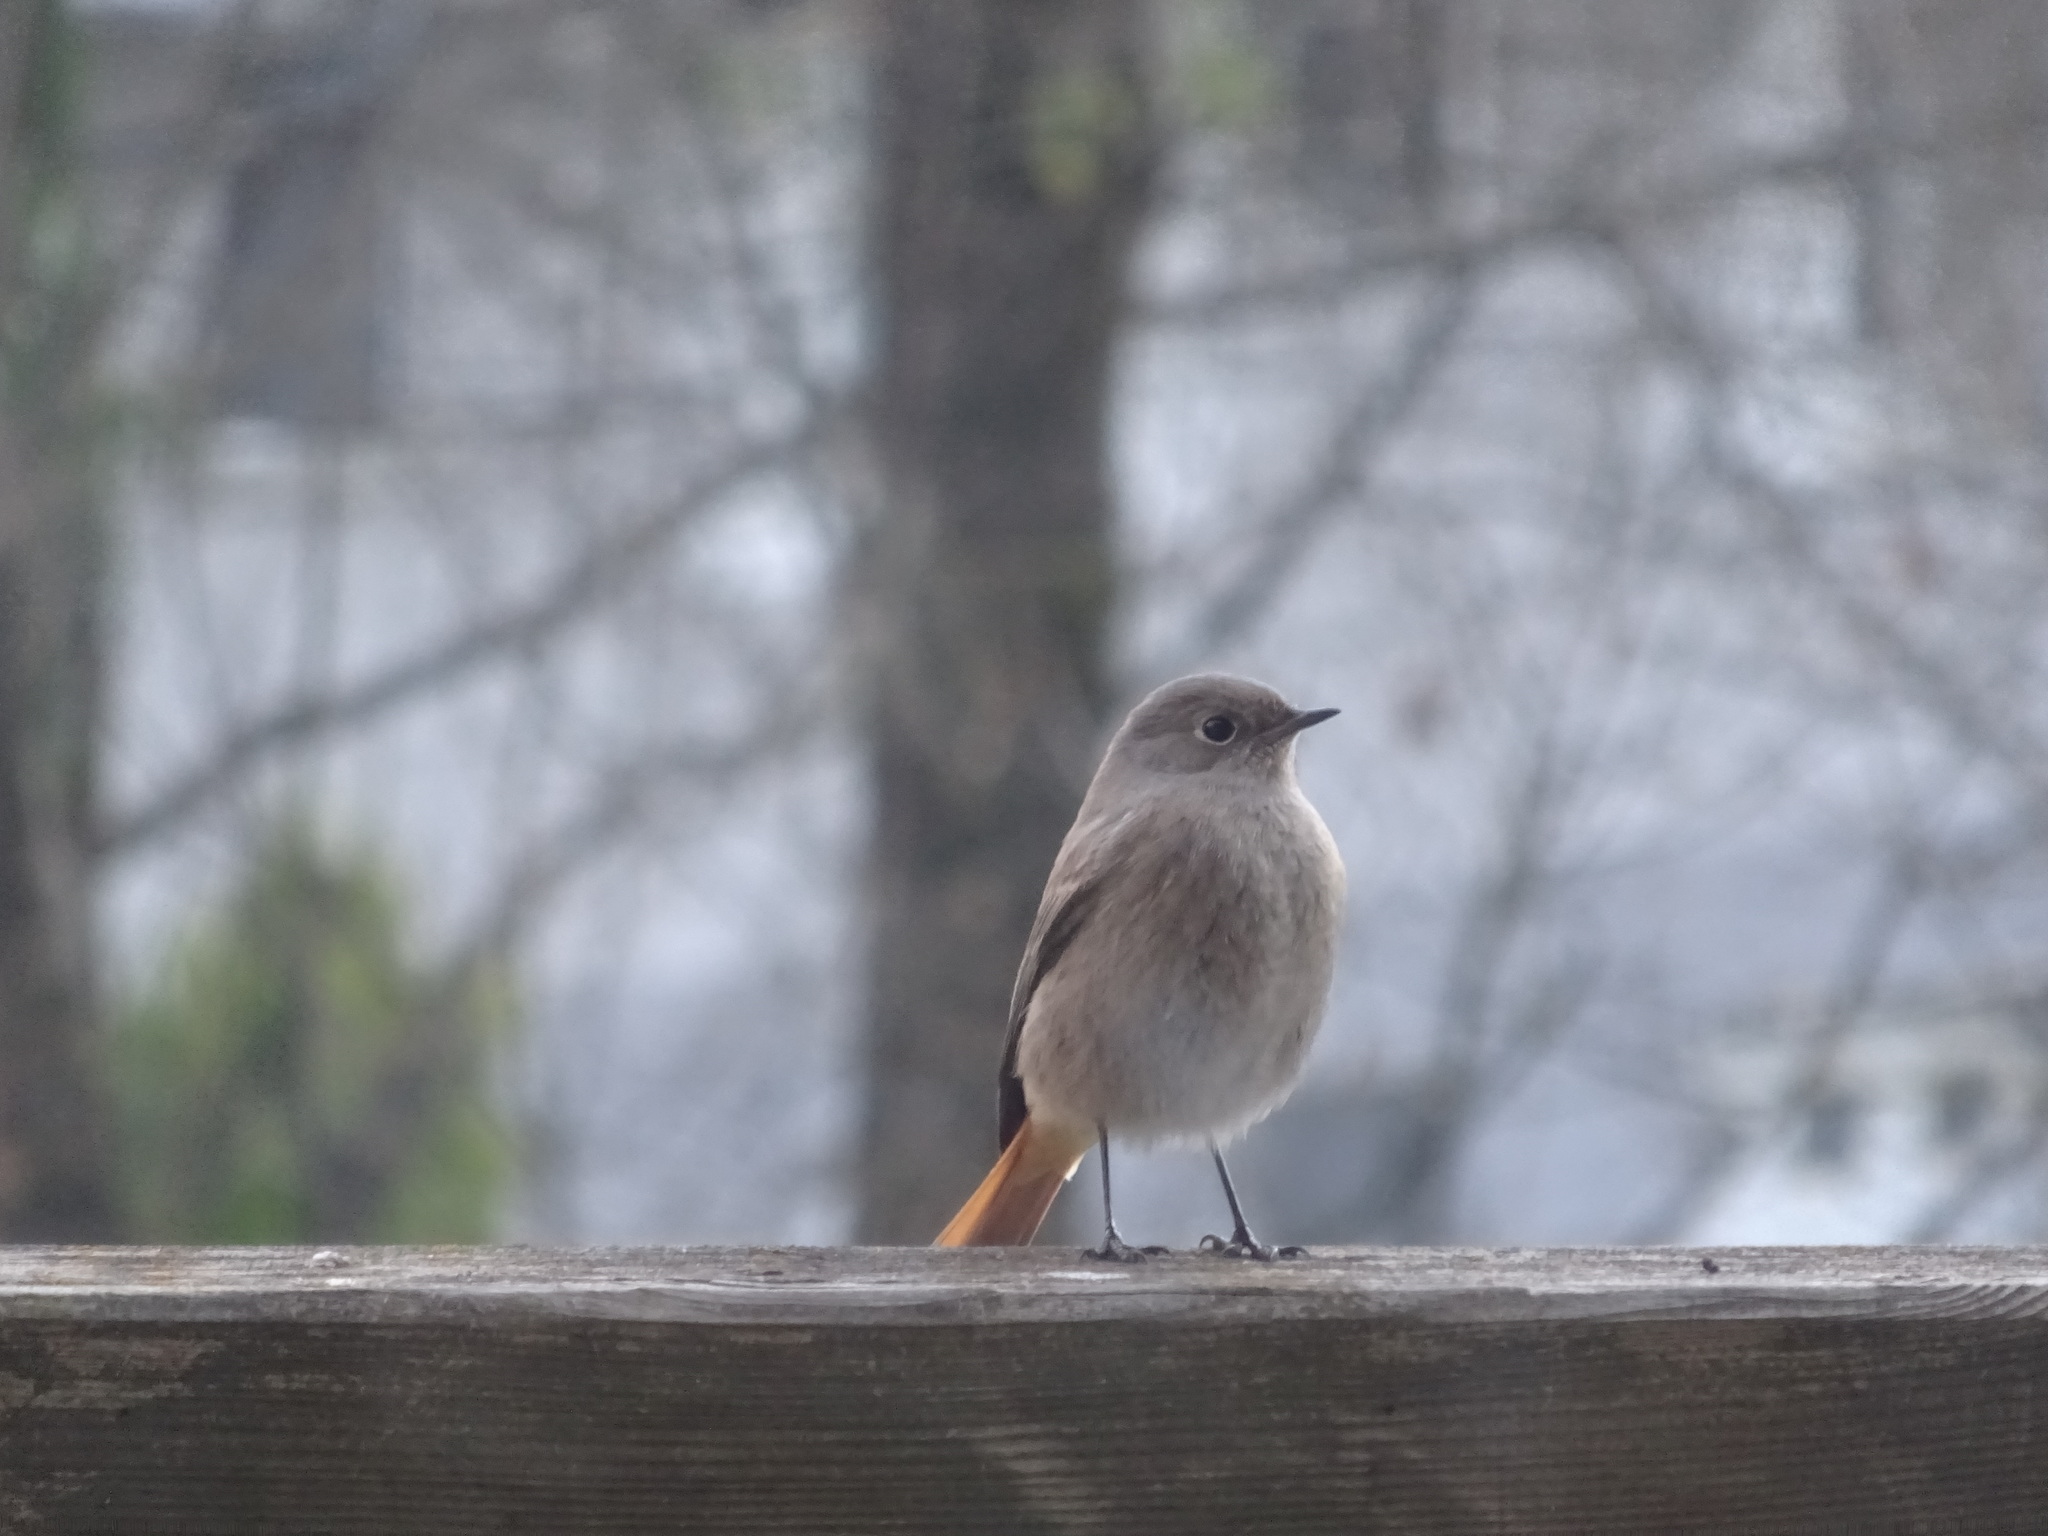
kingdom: Animalia
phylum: Chordata
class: Aves
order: Passeriformes
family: Muscicapidae
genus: Phoenicurus
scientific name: Phoenicurus ochruros
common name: Black redstart
